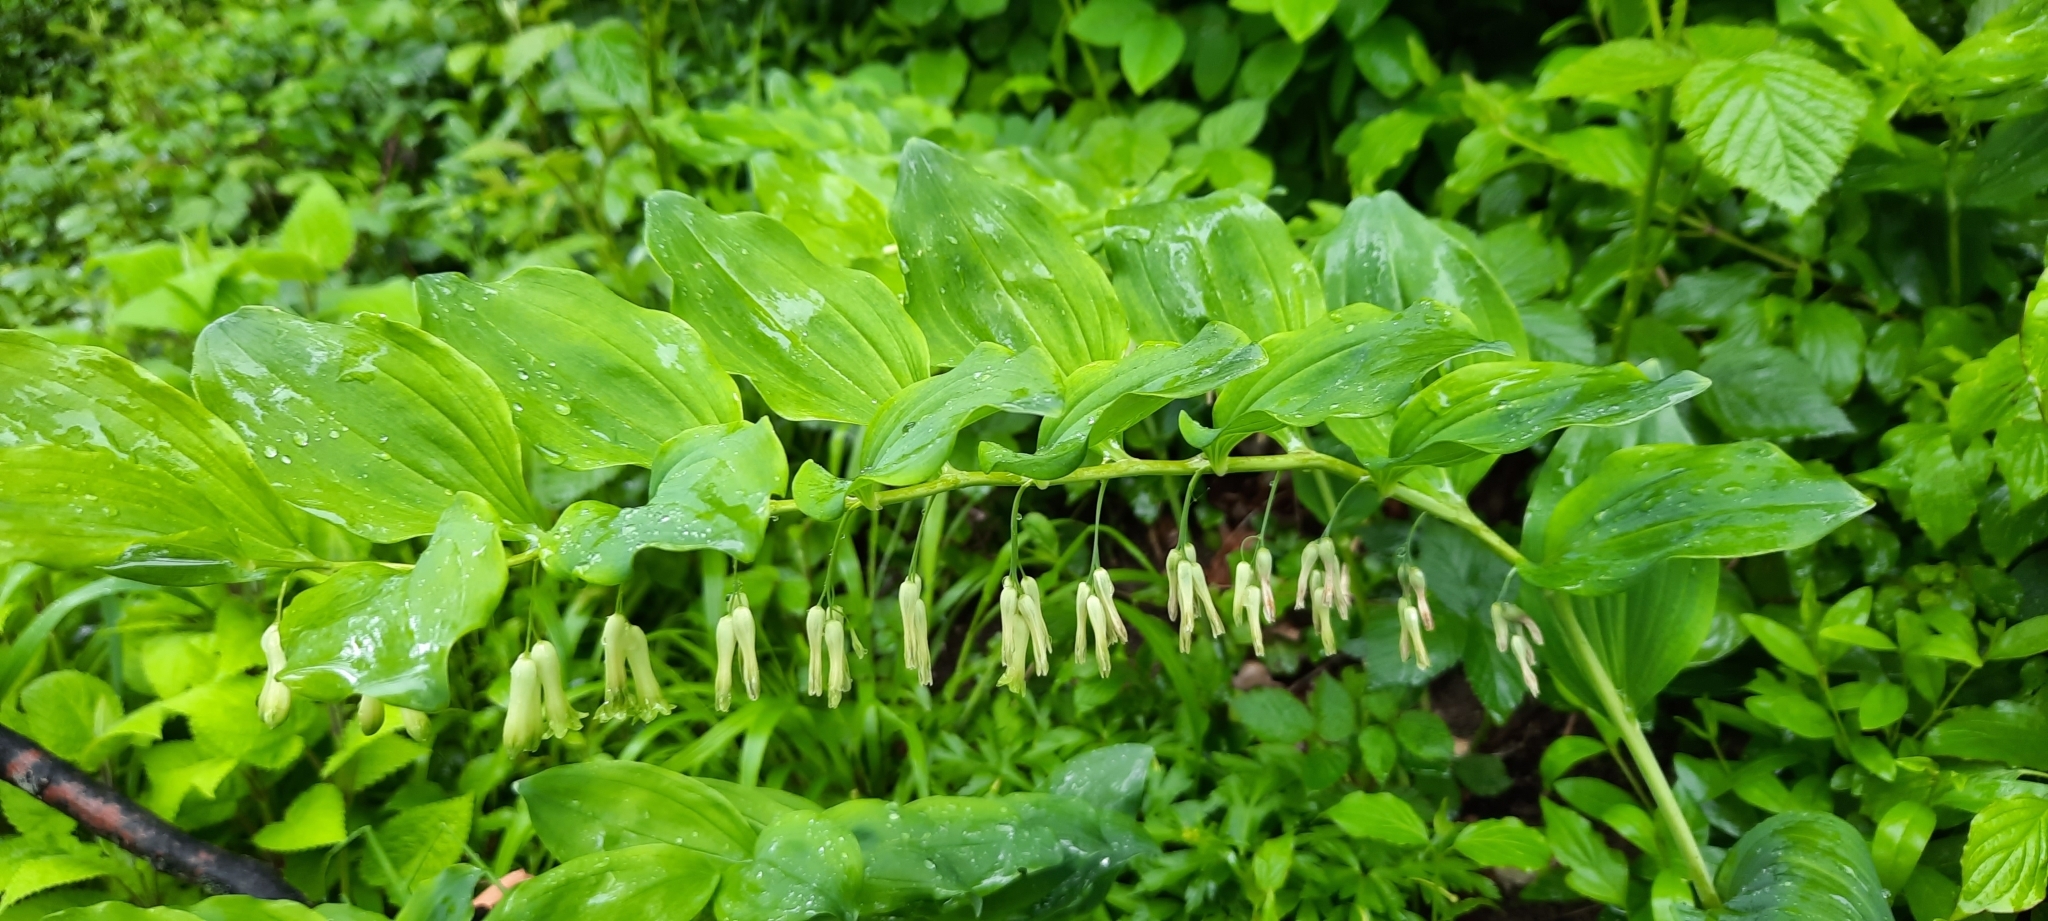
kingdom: Plantae
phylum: Tracheophyta
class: Liliopsida
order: Asparagales
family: Asparagaceae
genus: Polygonatum
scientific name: Polygonatum multiflorum
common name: Solomon's-seal
